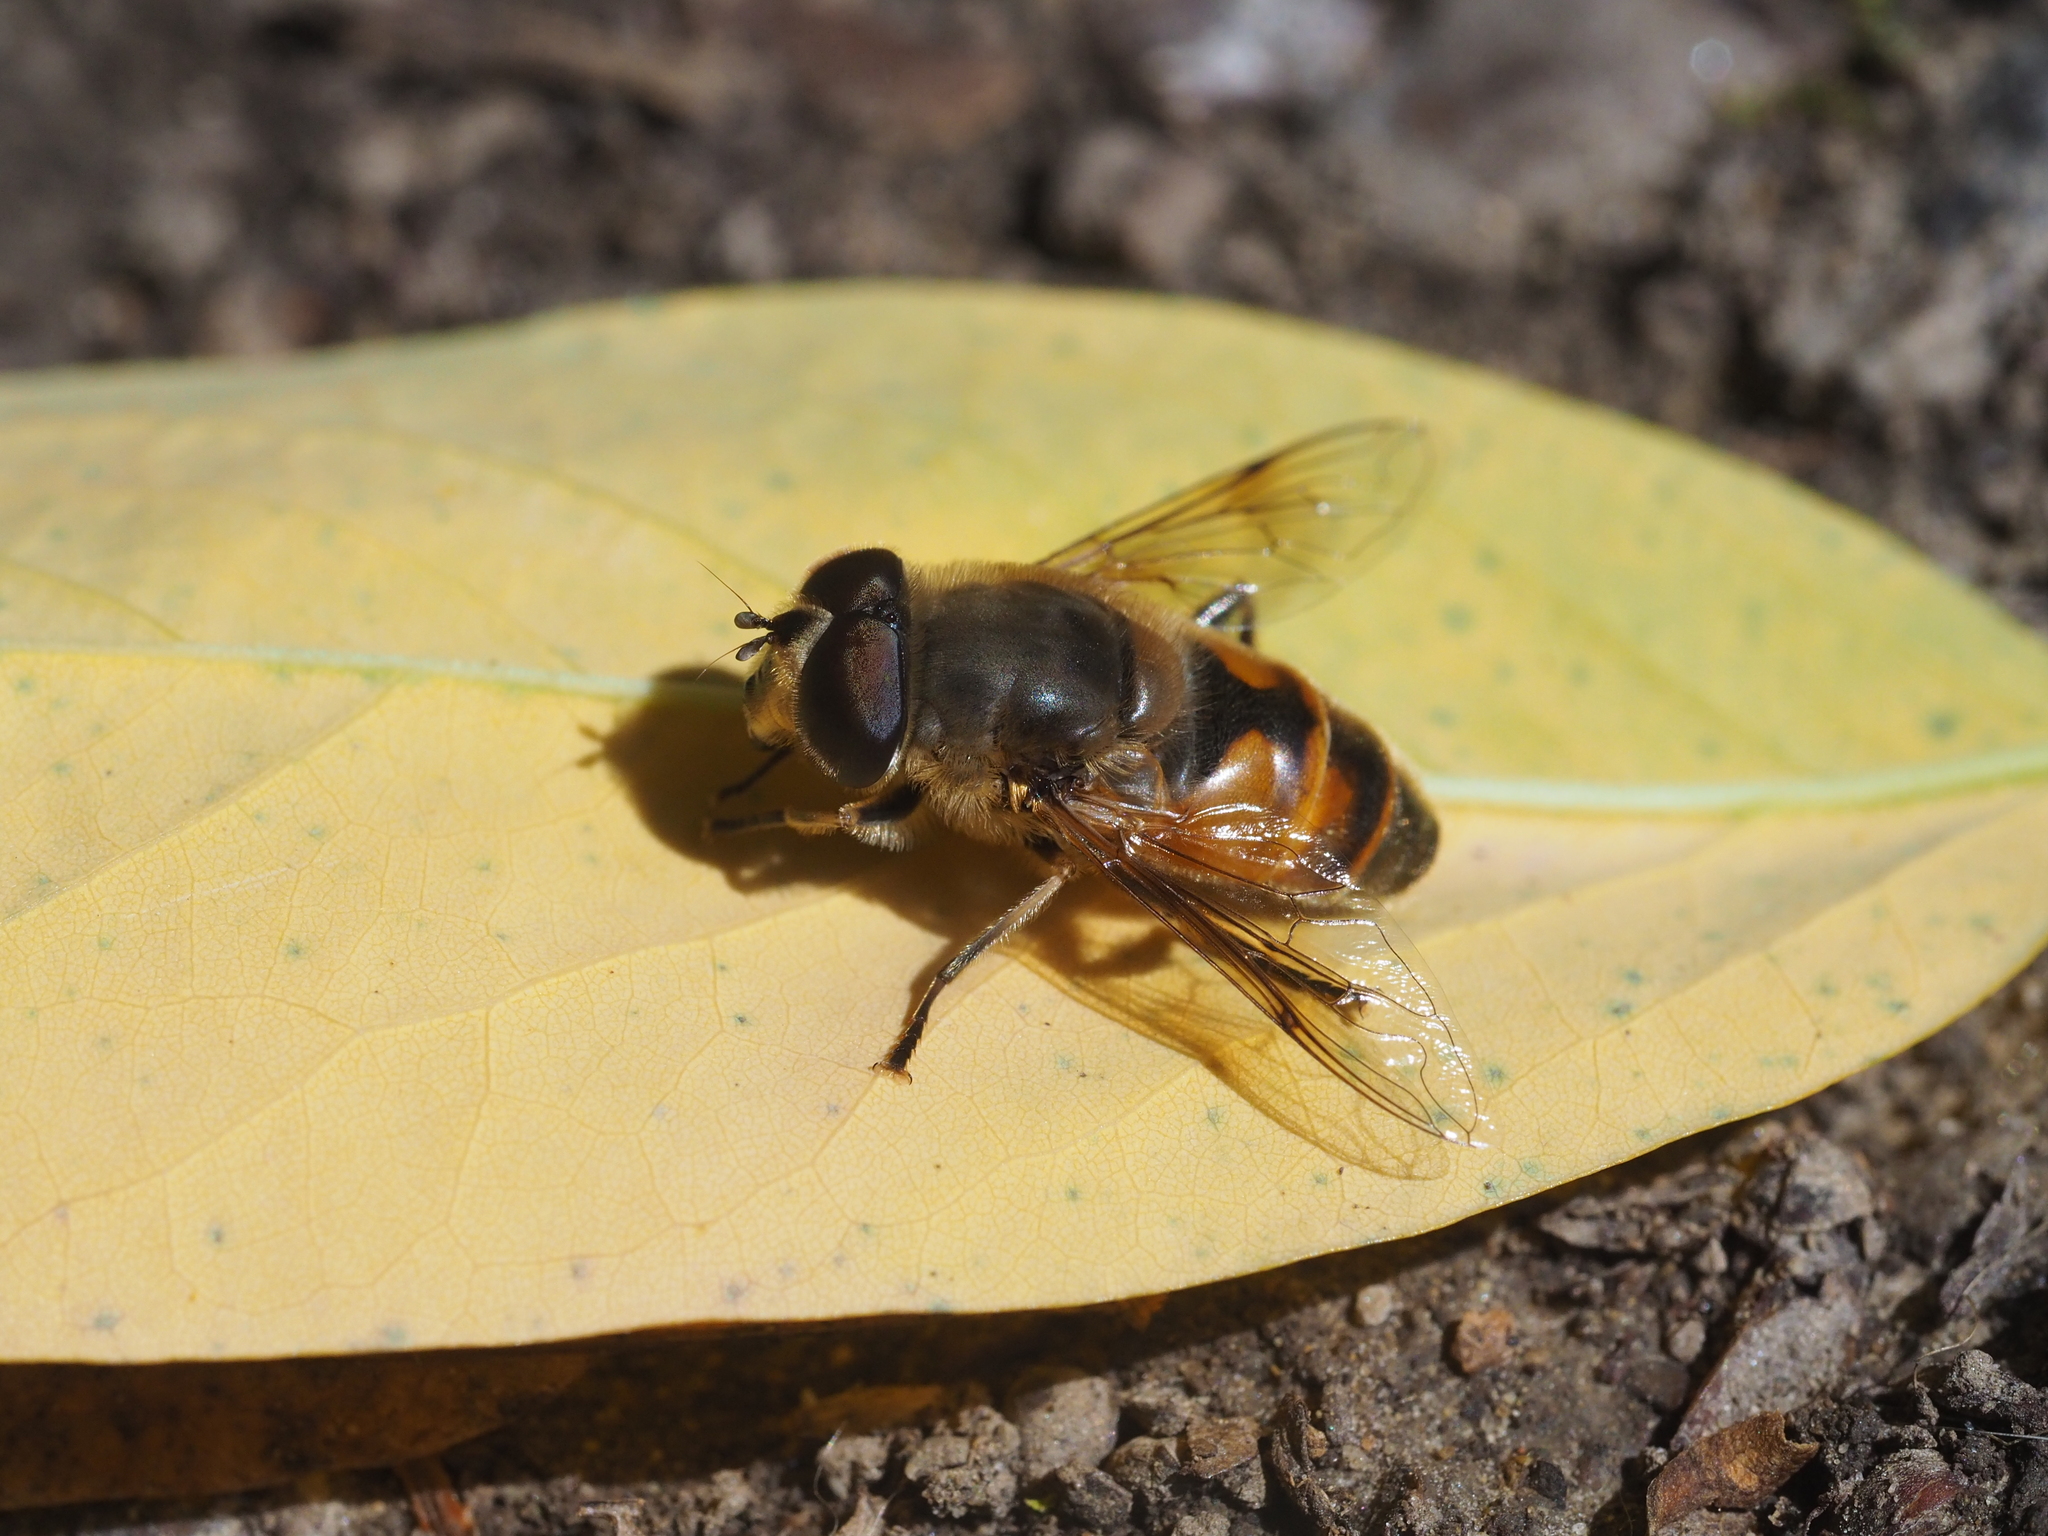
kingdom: Animalia
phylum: Arthropoda
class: Insecta
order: Diptera
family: Syrphidae
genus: Eristalis
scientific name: Eristalis tenax
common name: Drone fly
